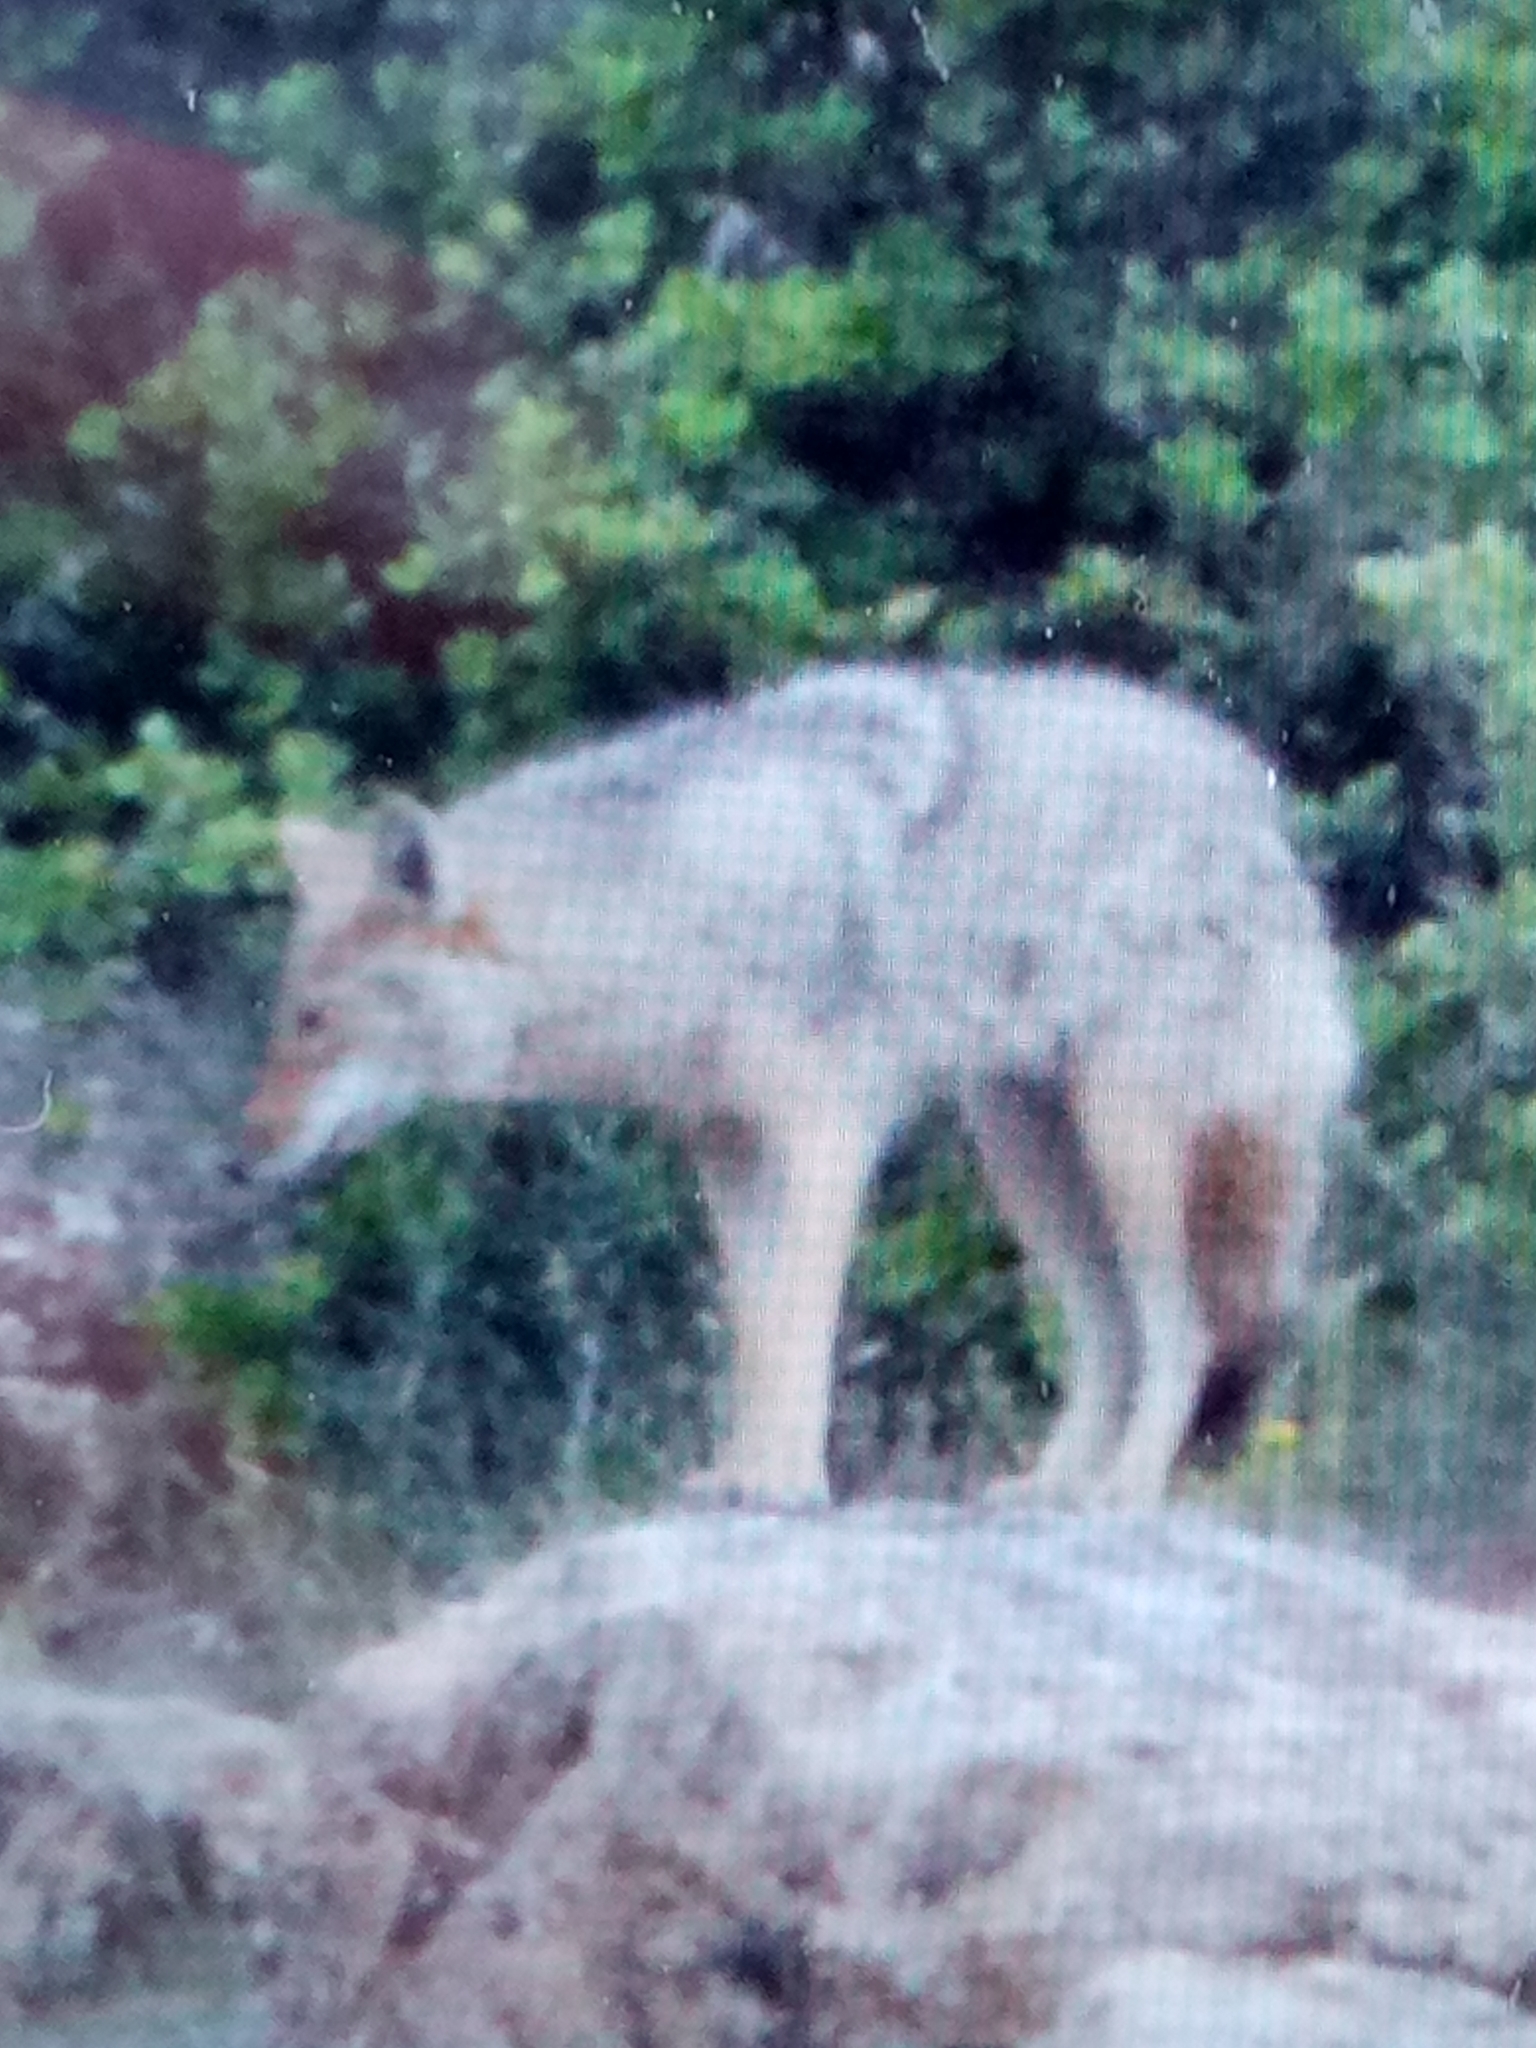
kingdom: Animalia
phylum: Chordata
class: Mammalia
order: Carnivora
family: Canidae
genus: Canis
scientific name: Canis lupaster
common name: African golden wolf
